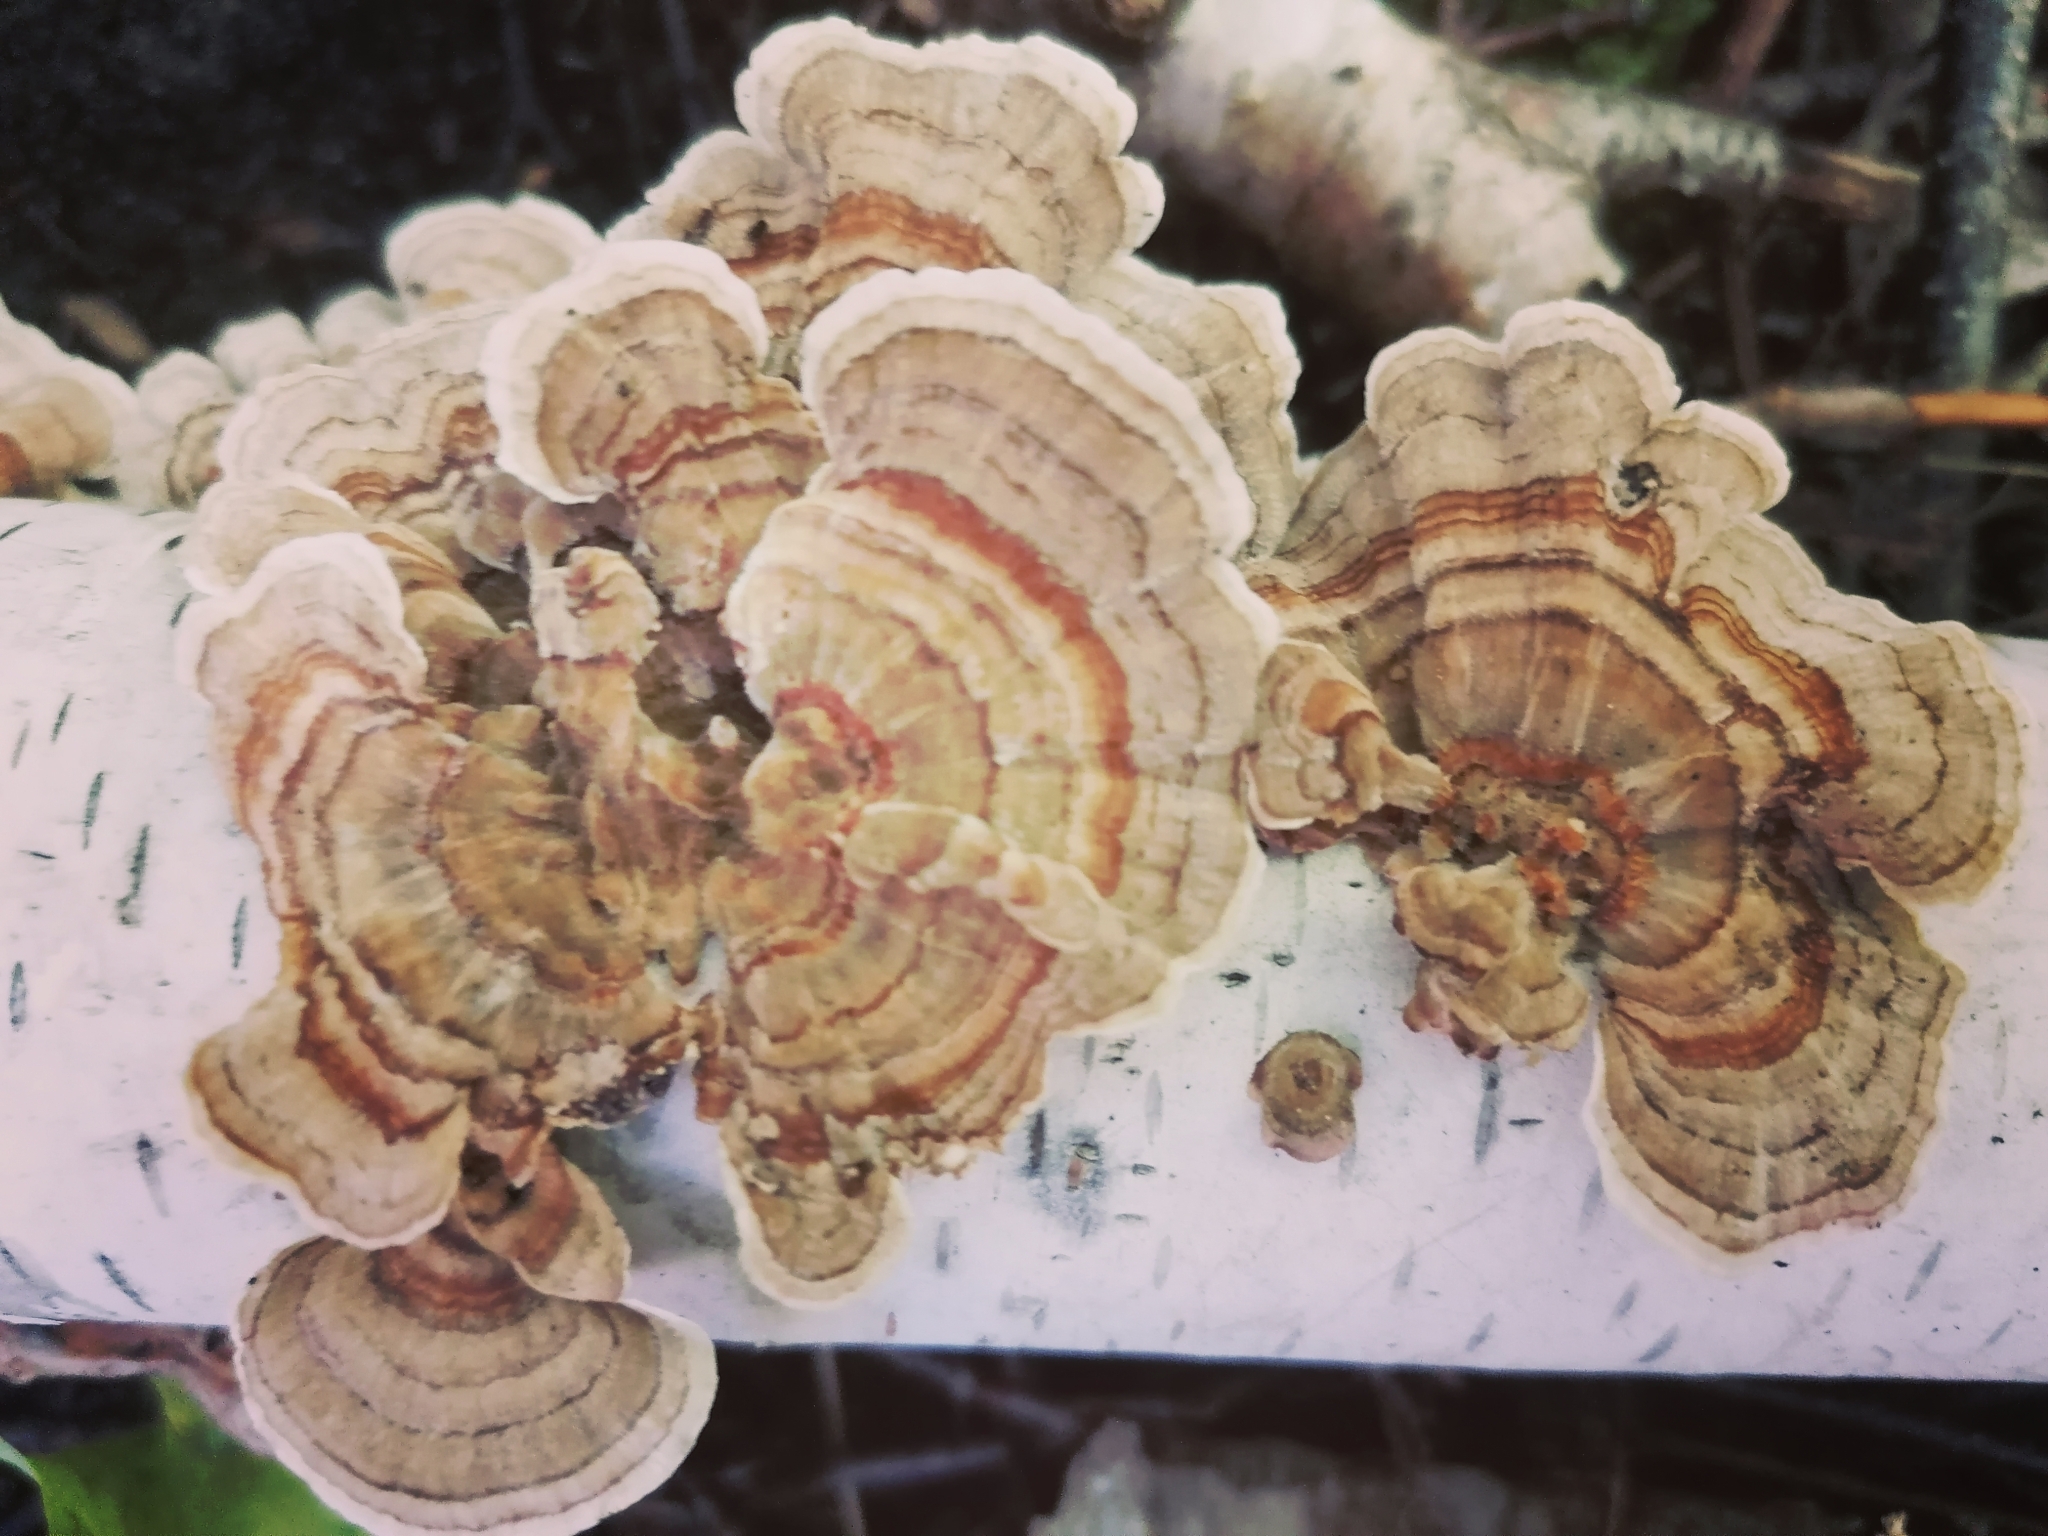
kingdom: Fungi
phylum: Basidiomycota
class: Agaricomycetes
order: Polyporales
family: Polyporaceae
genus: Trametes
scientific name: Trametes versicolor
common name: Turkeytail
